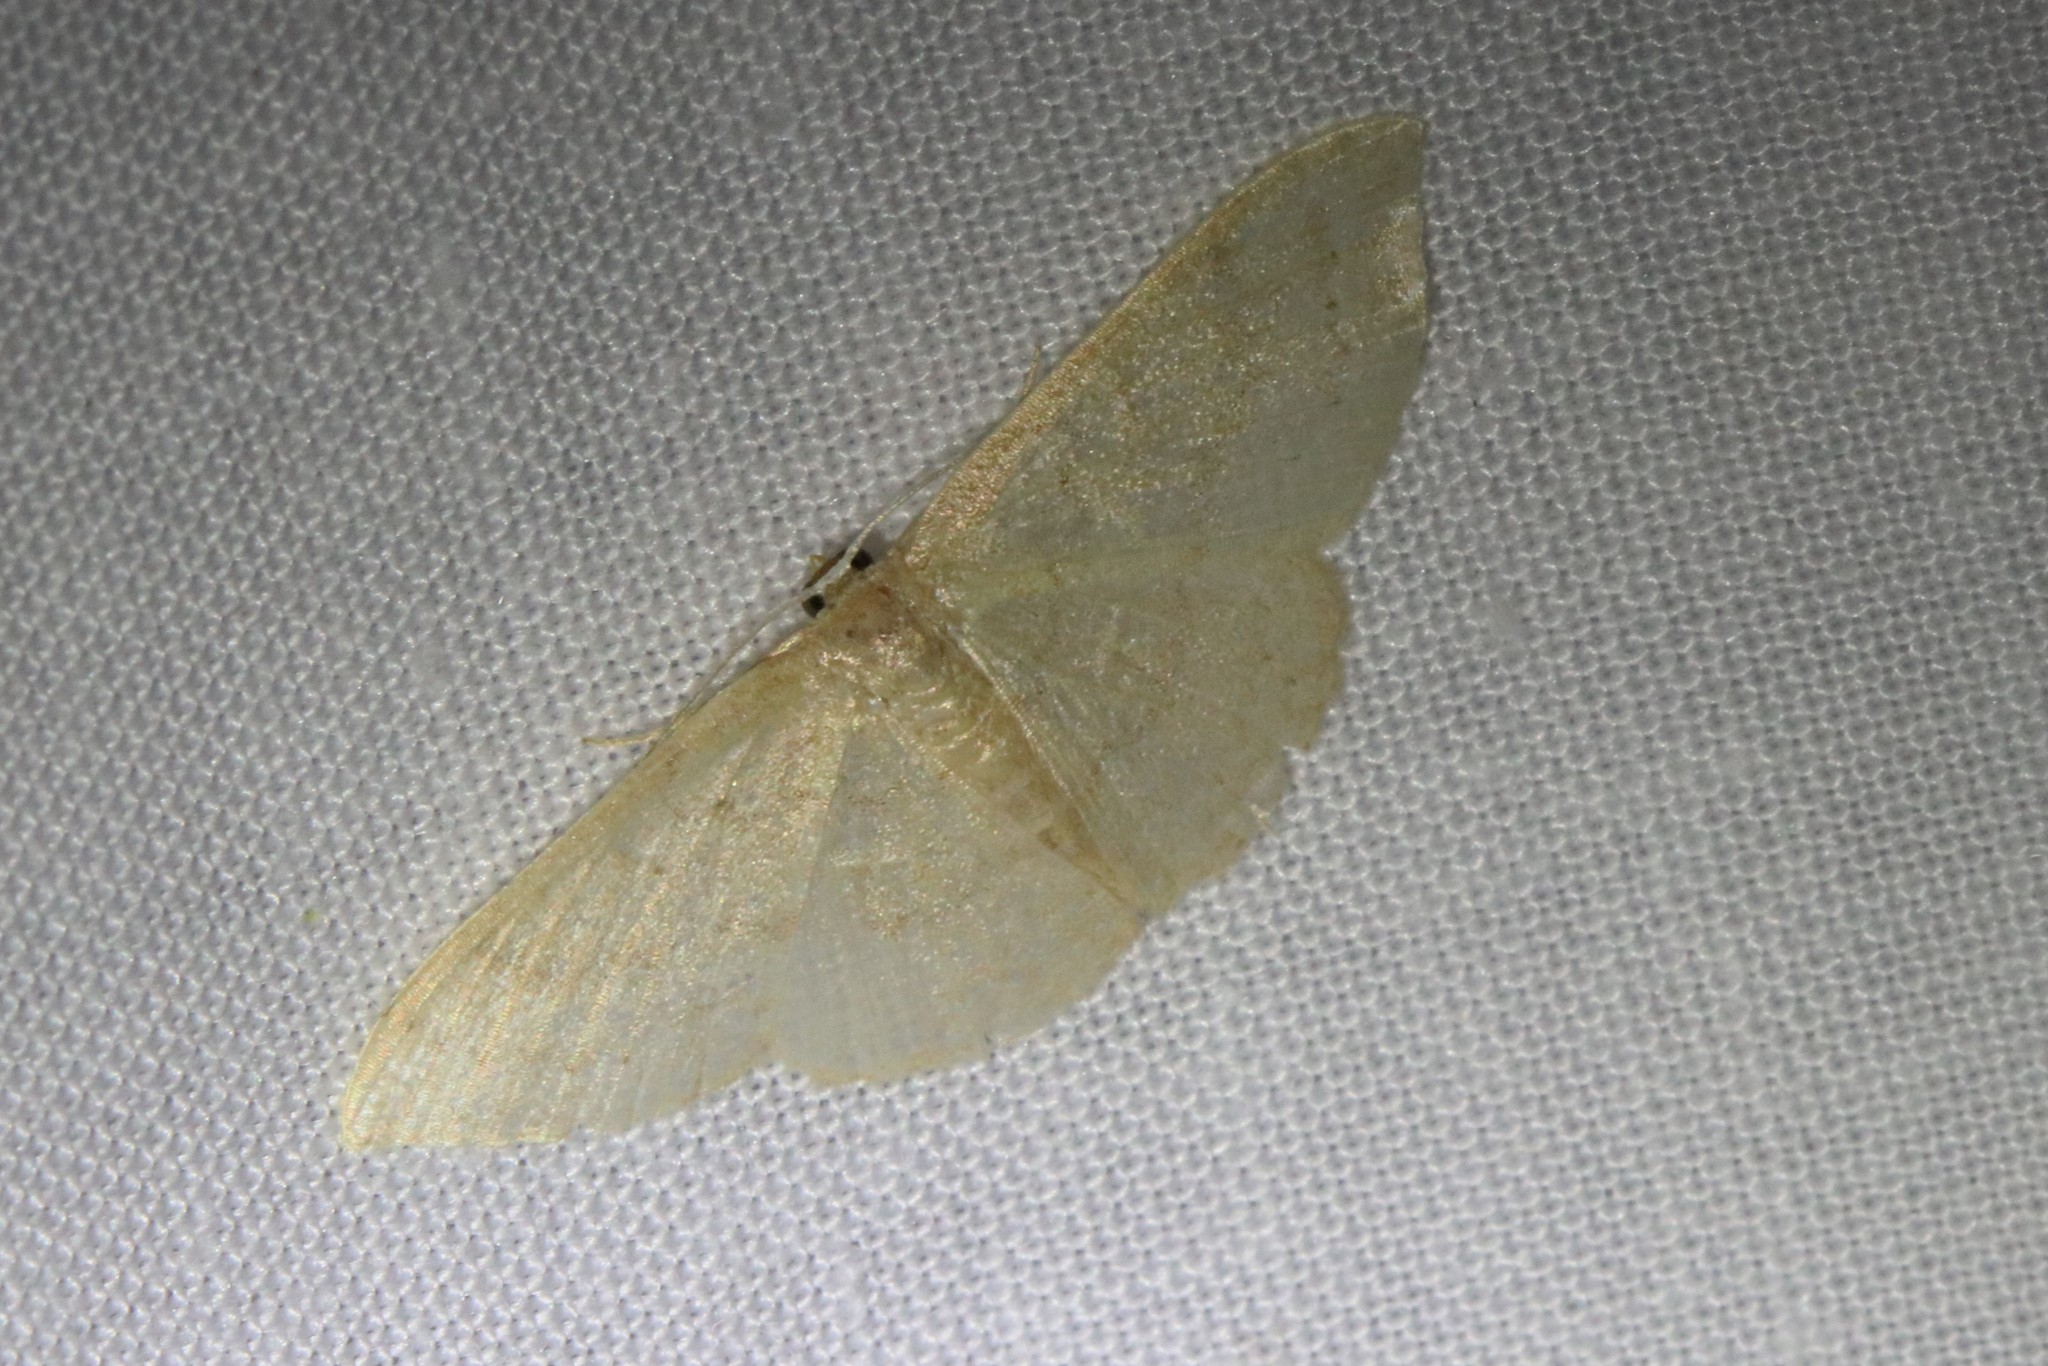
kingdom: Animalia
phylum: Arthropoda
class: Insecta
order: Lepidoptera
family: Geometridae
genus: Pleuroprucha
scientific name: Pleuroprucha insulsaria
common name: Common tan wave
